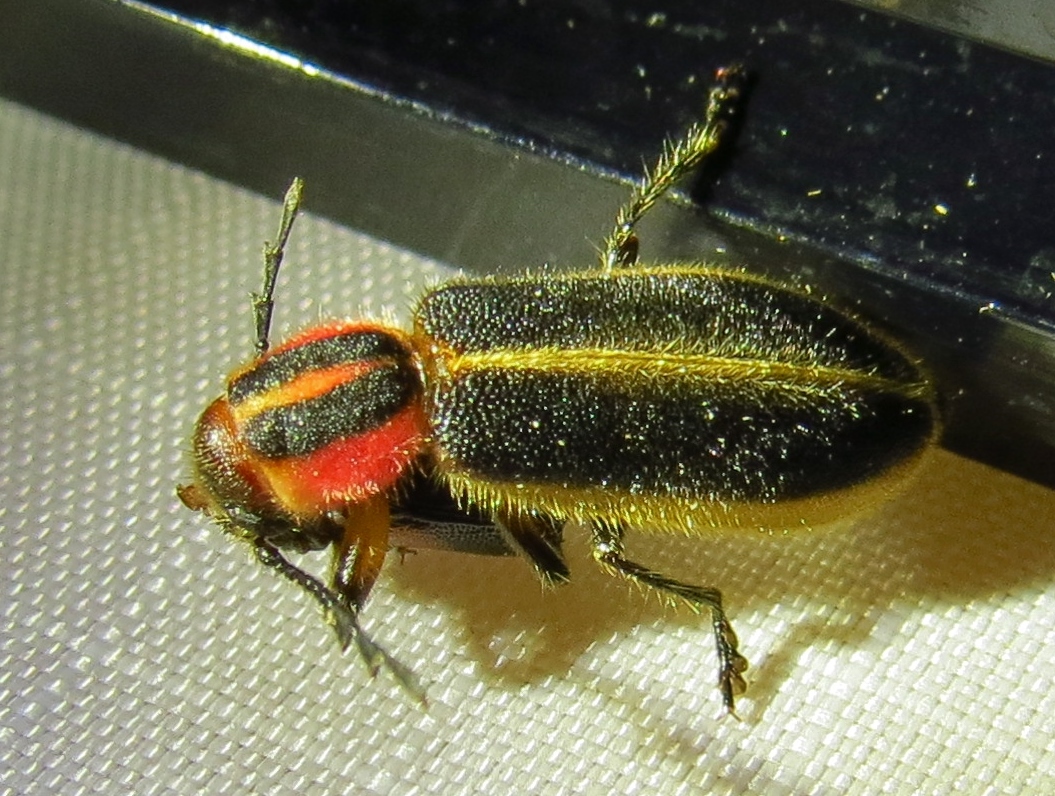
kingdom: Animalia
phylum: Arthropoda
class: Insecta
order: Coleoptera
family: Cleridae
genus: Chariessa
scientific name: Chariessa pilosa
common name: Pilose checkered beetle
